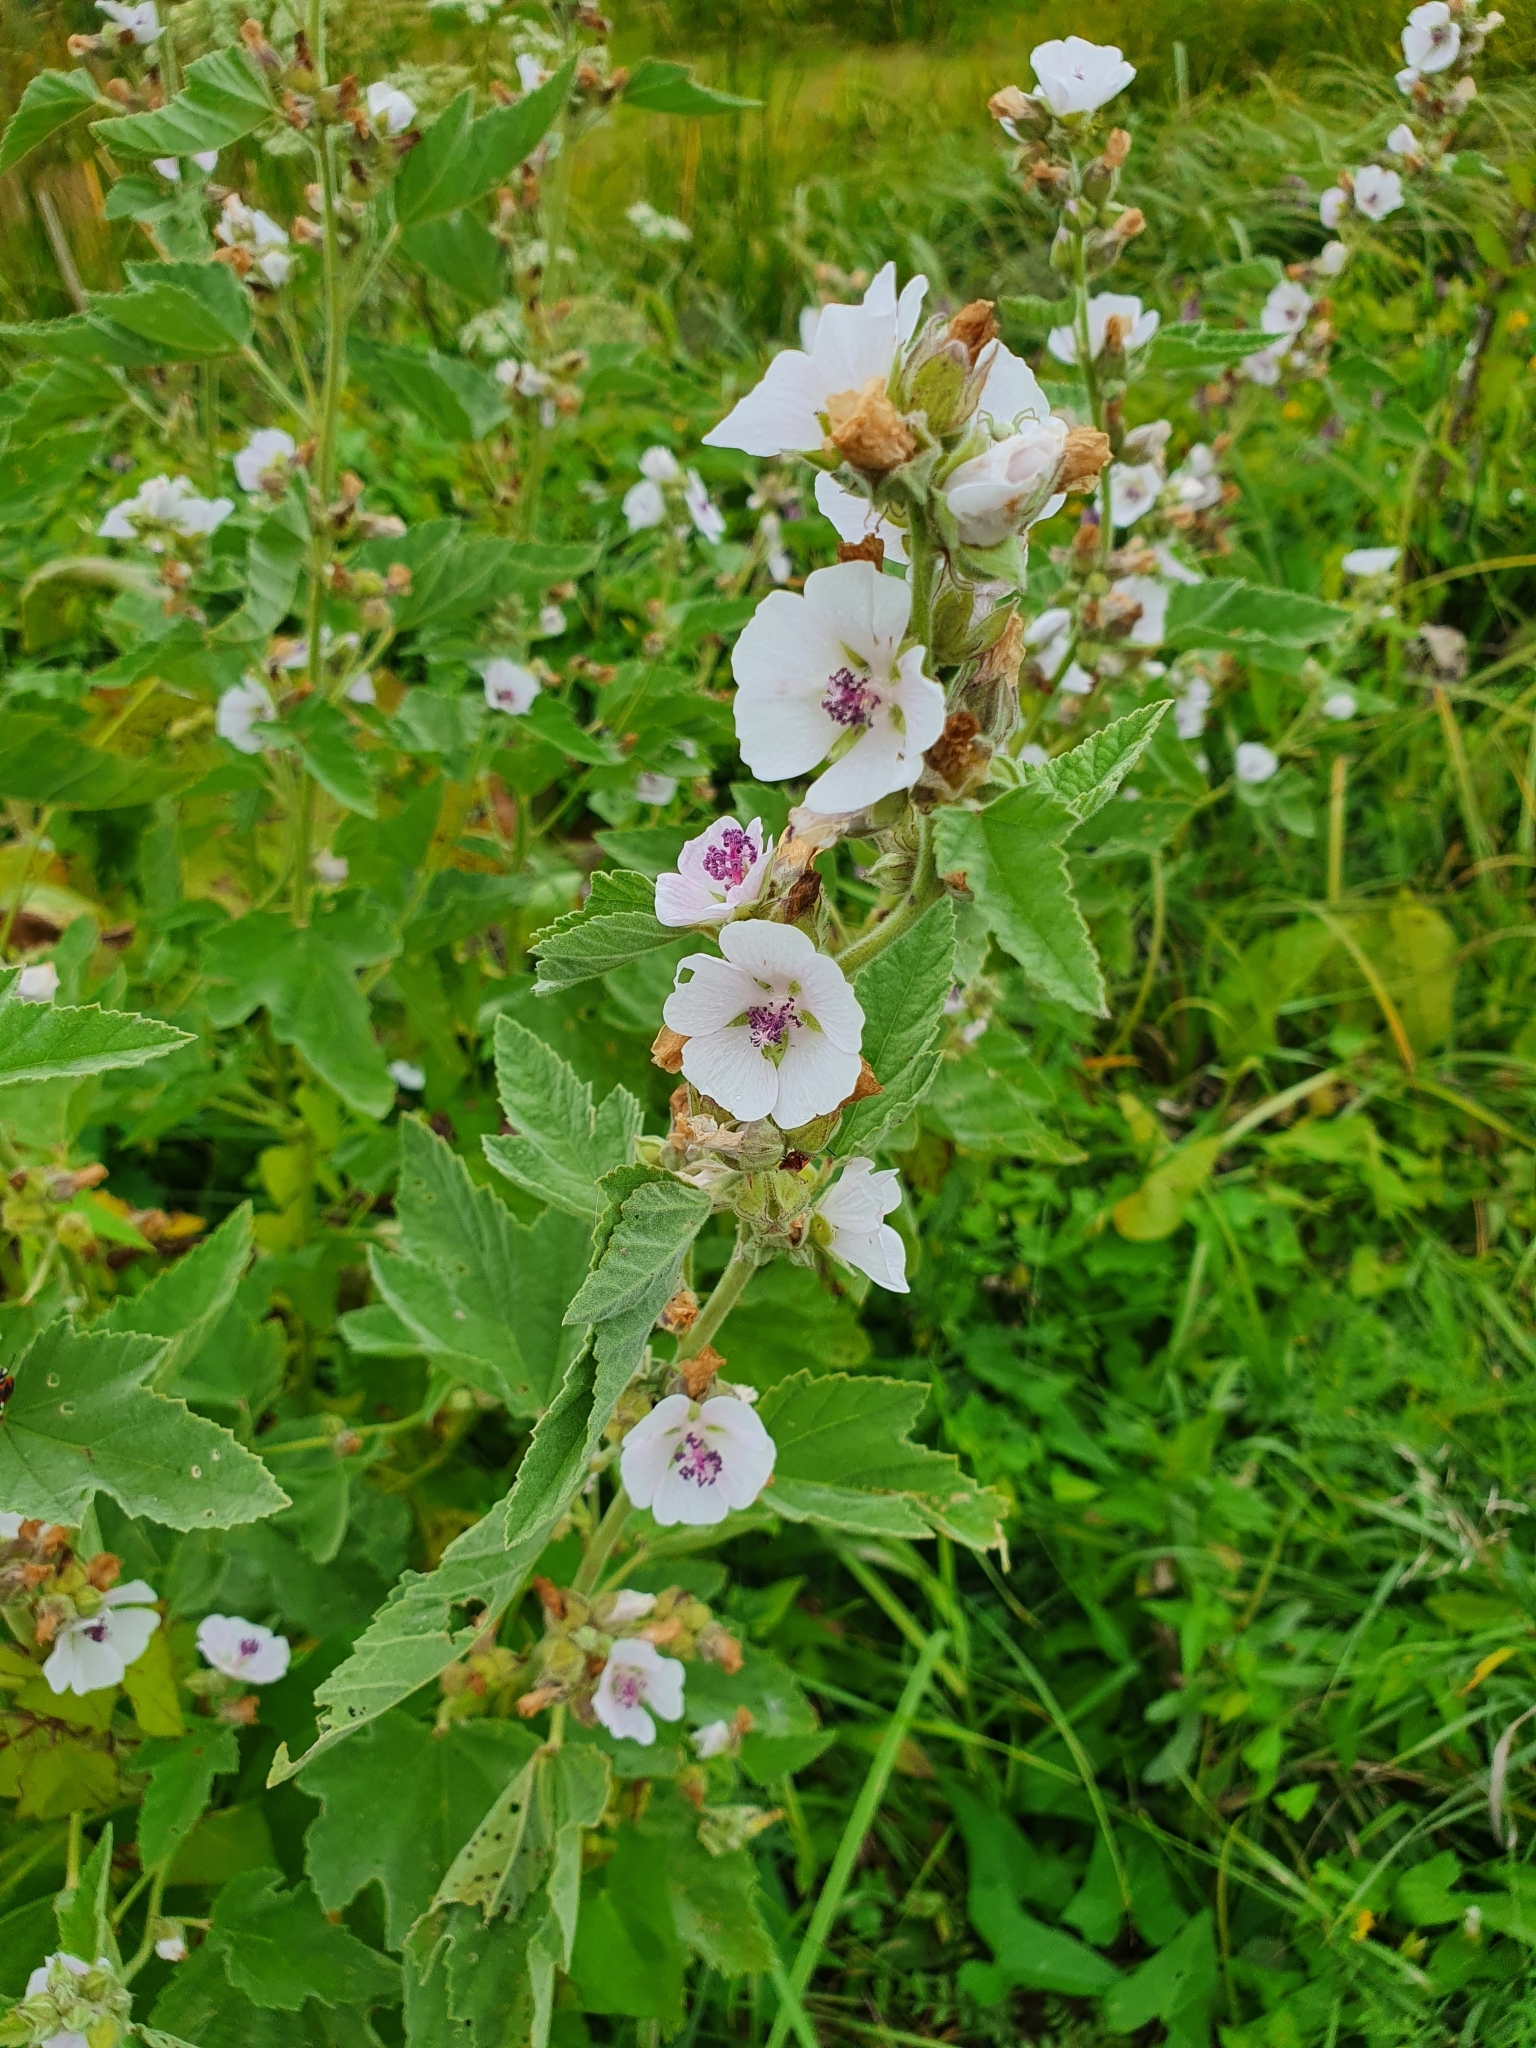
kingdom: Plantae
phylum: Tracheophyta
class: Magnoliopsida
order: Malvales
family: Malvaceae
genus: Althaea
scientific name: Althaea officinalis
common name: Marsh-mallow
